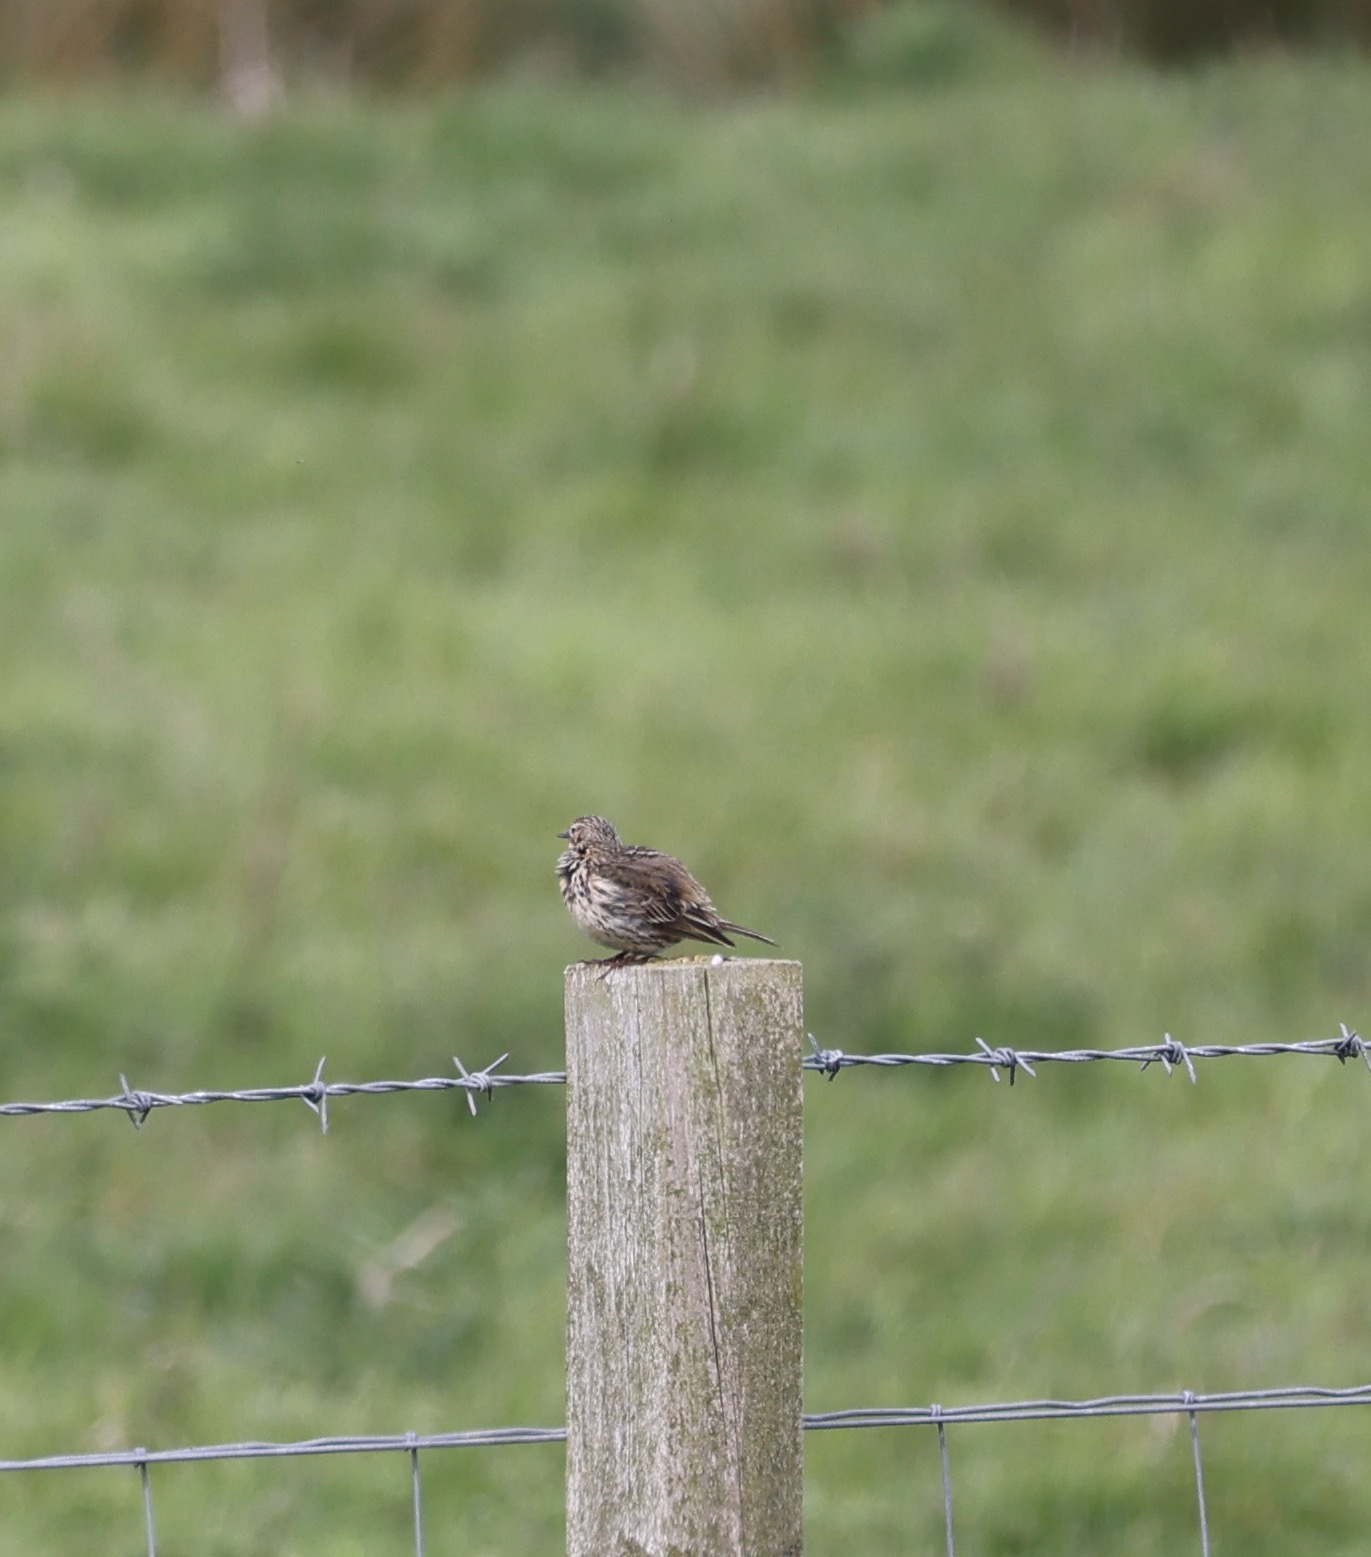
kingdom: Animalia
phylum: Chordata
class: Aves
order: Passeriformes
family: Motacillidae
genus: Anthus
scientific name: Anthus pratensis
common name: Meadow pipit
